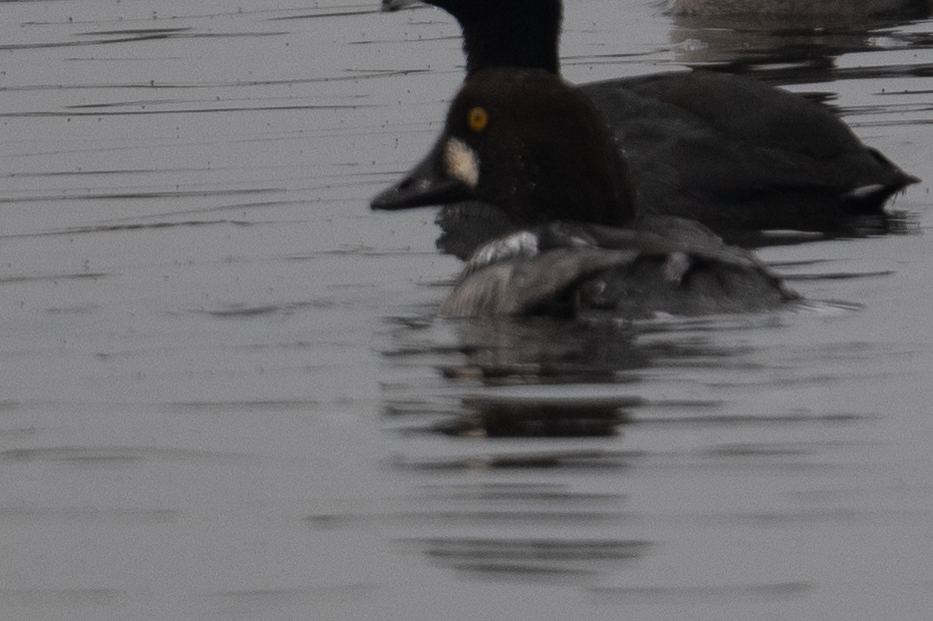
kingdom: Animalia
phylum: Chordata
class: Aves
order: Anseriformes
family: Anatidae
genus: Bucephala
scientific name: Bucephala clangula
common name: Common goldeneye
